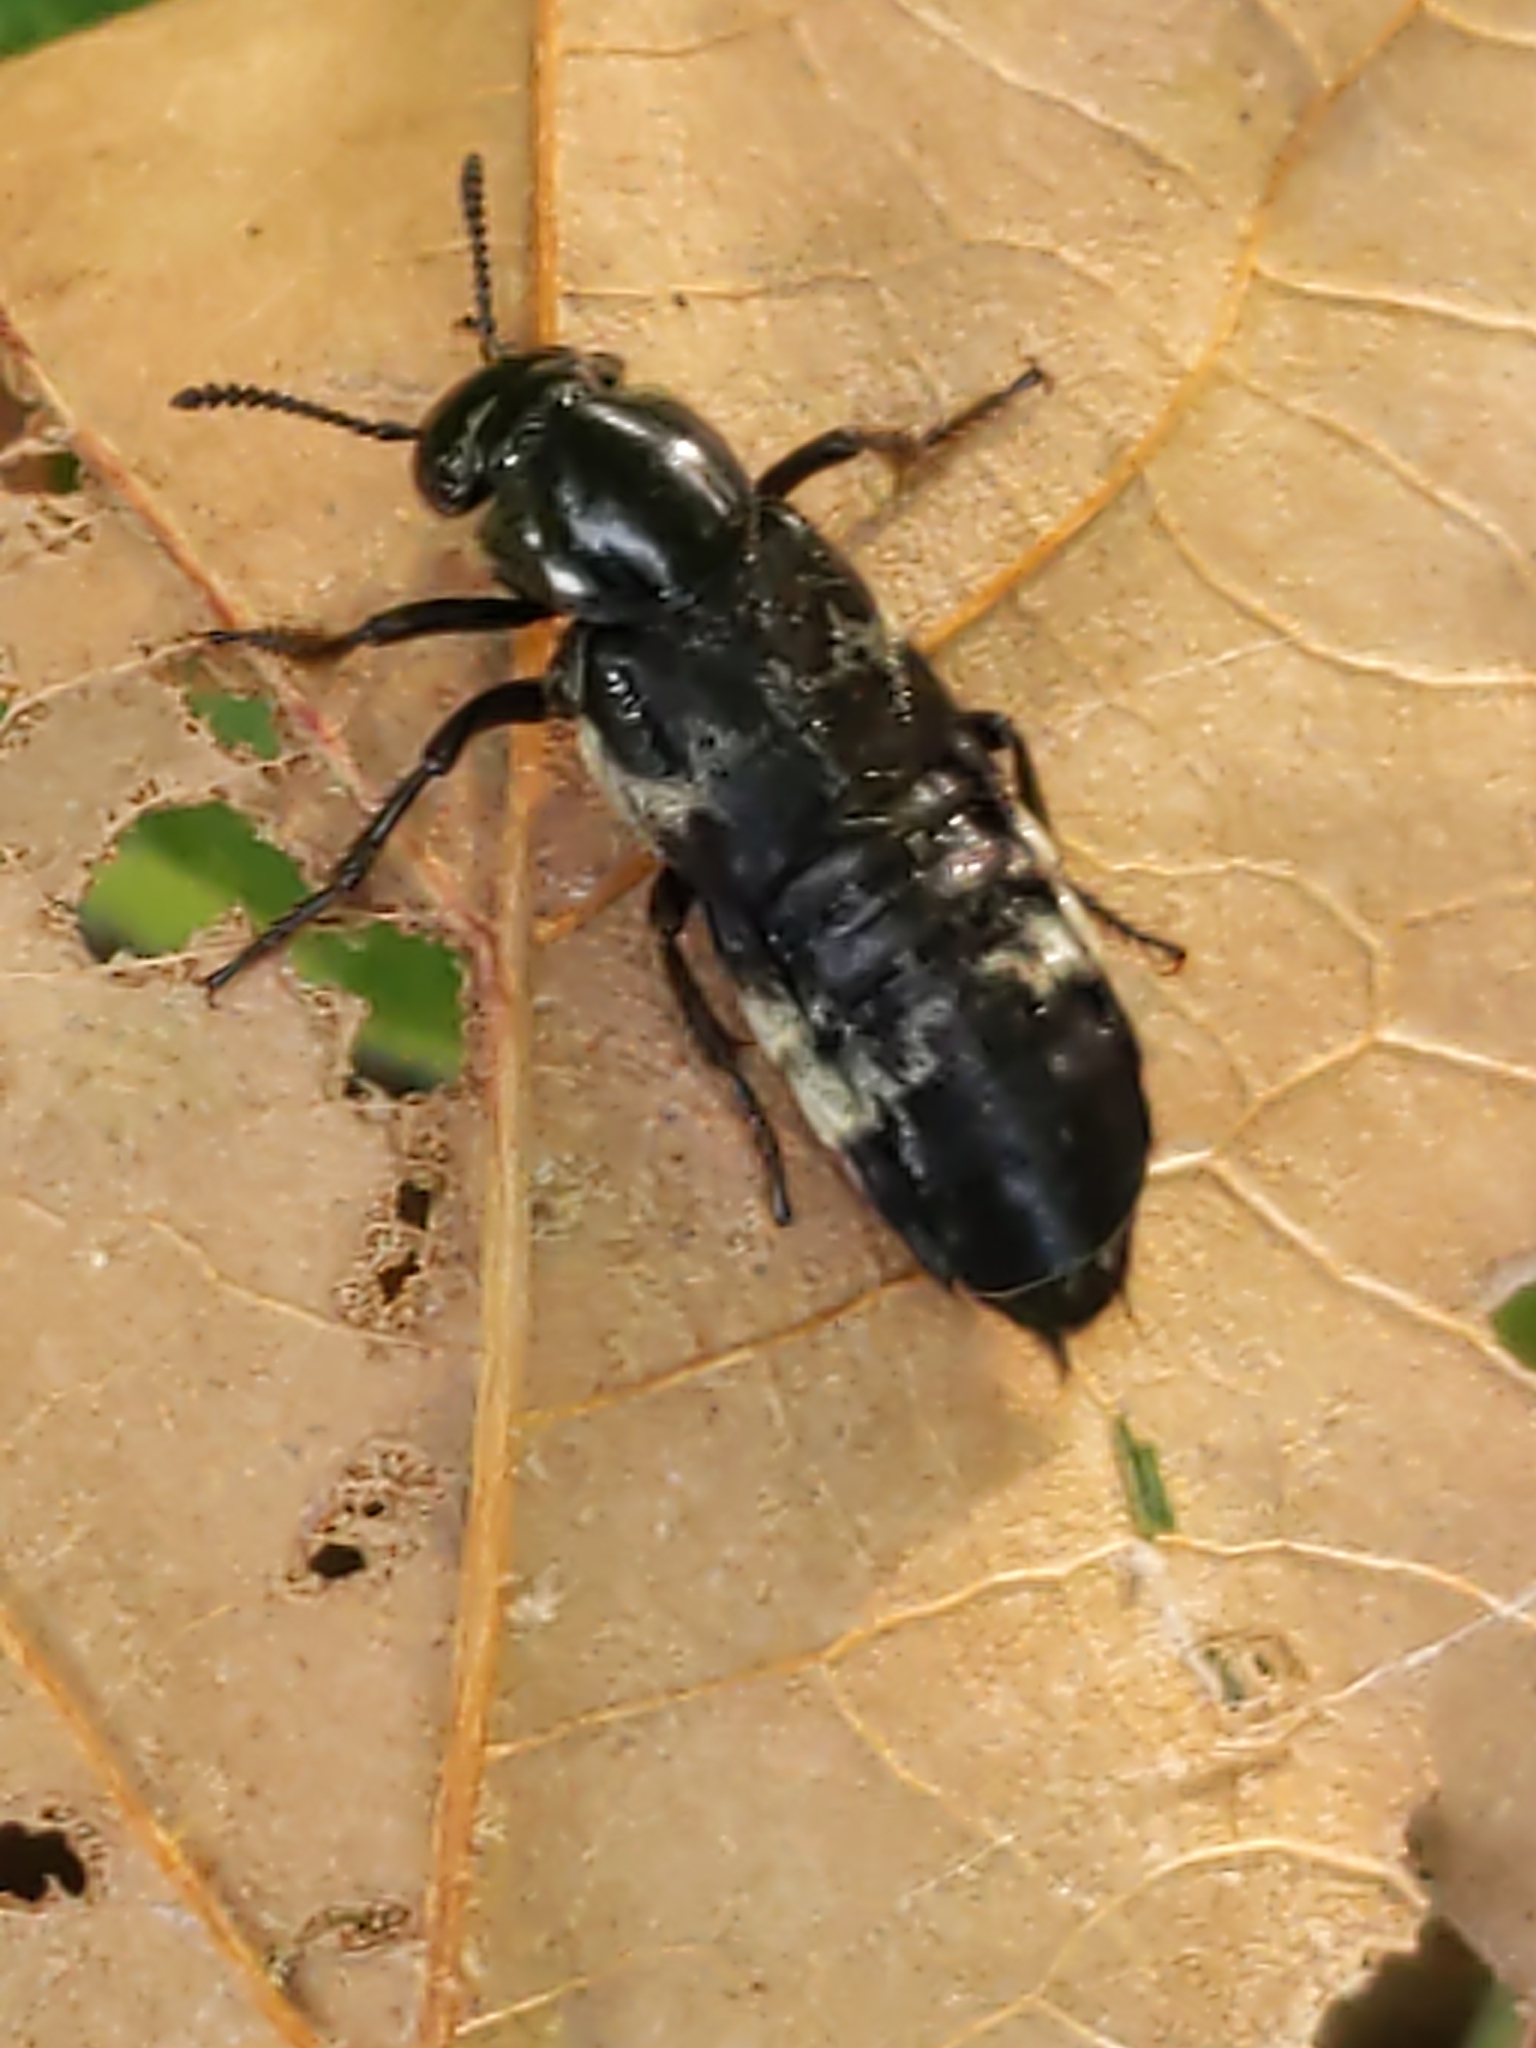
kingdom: Animalia
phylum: Arthropoda
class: Insecta
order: Coleoptera
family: Staphylinidae
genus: Creophilus
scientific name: Creophilus maxillosus
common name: Hairy rove beetle
